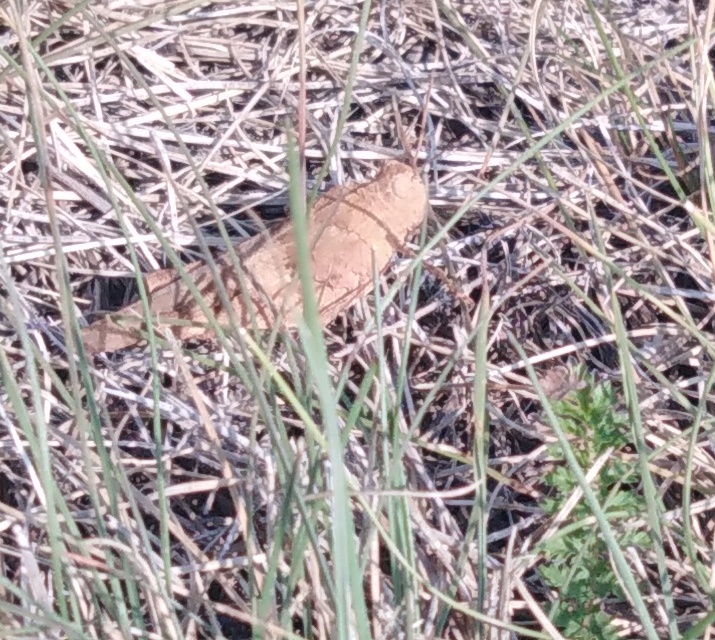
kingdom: Animalia
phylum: Arthropoda
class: Insecta
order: Orthoptera
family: Acrididae
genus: Oedipoda
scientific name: Oedipoda caerulescens
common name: Blue-winged grasshopper
